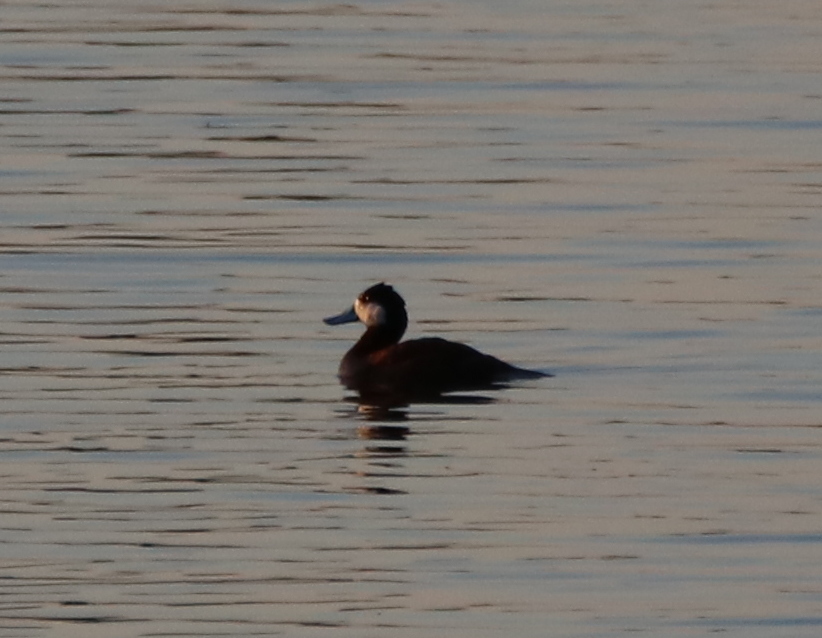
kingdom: Animalia
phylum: Chordata
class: Aves
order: Anseriformes
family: Anatidae
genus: Oxyura
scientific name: Oxyura jamaicensis
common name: Ruddy duck
